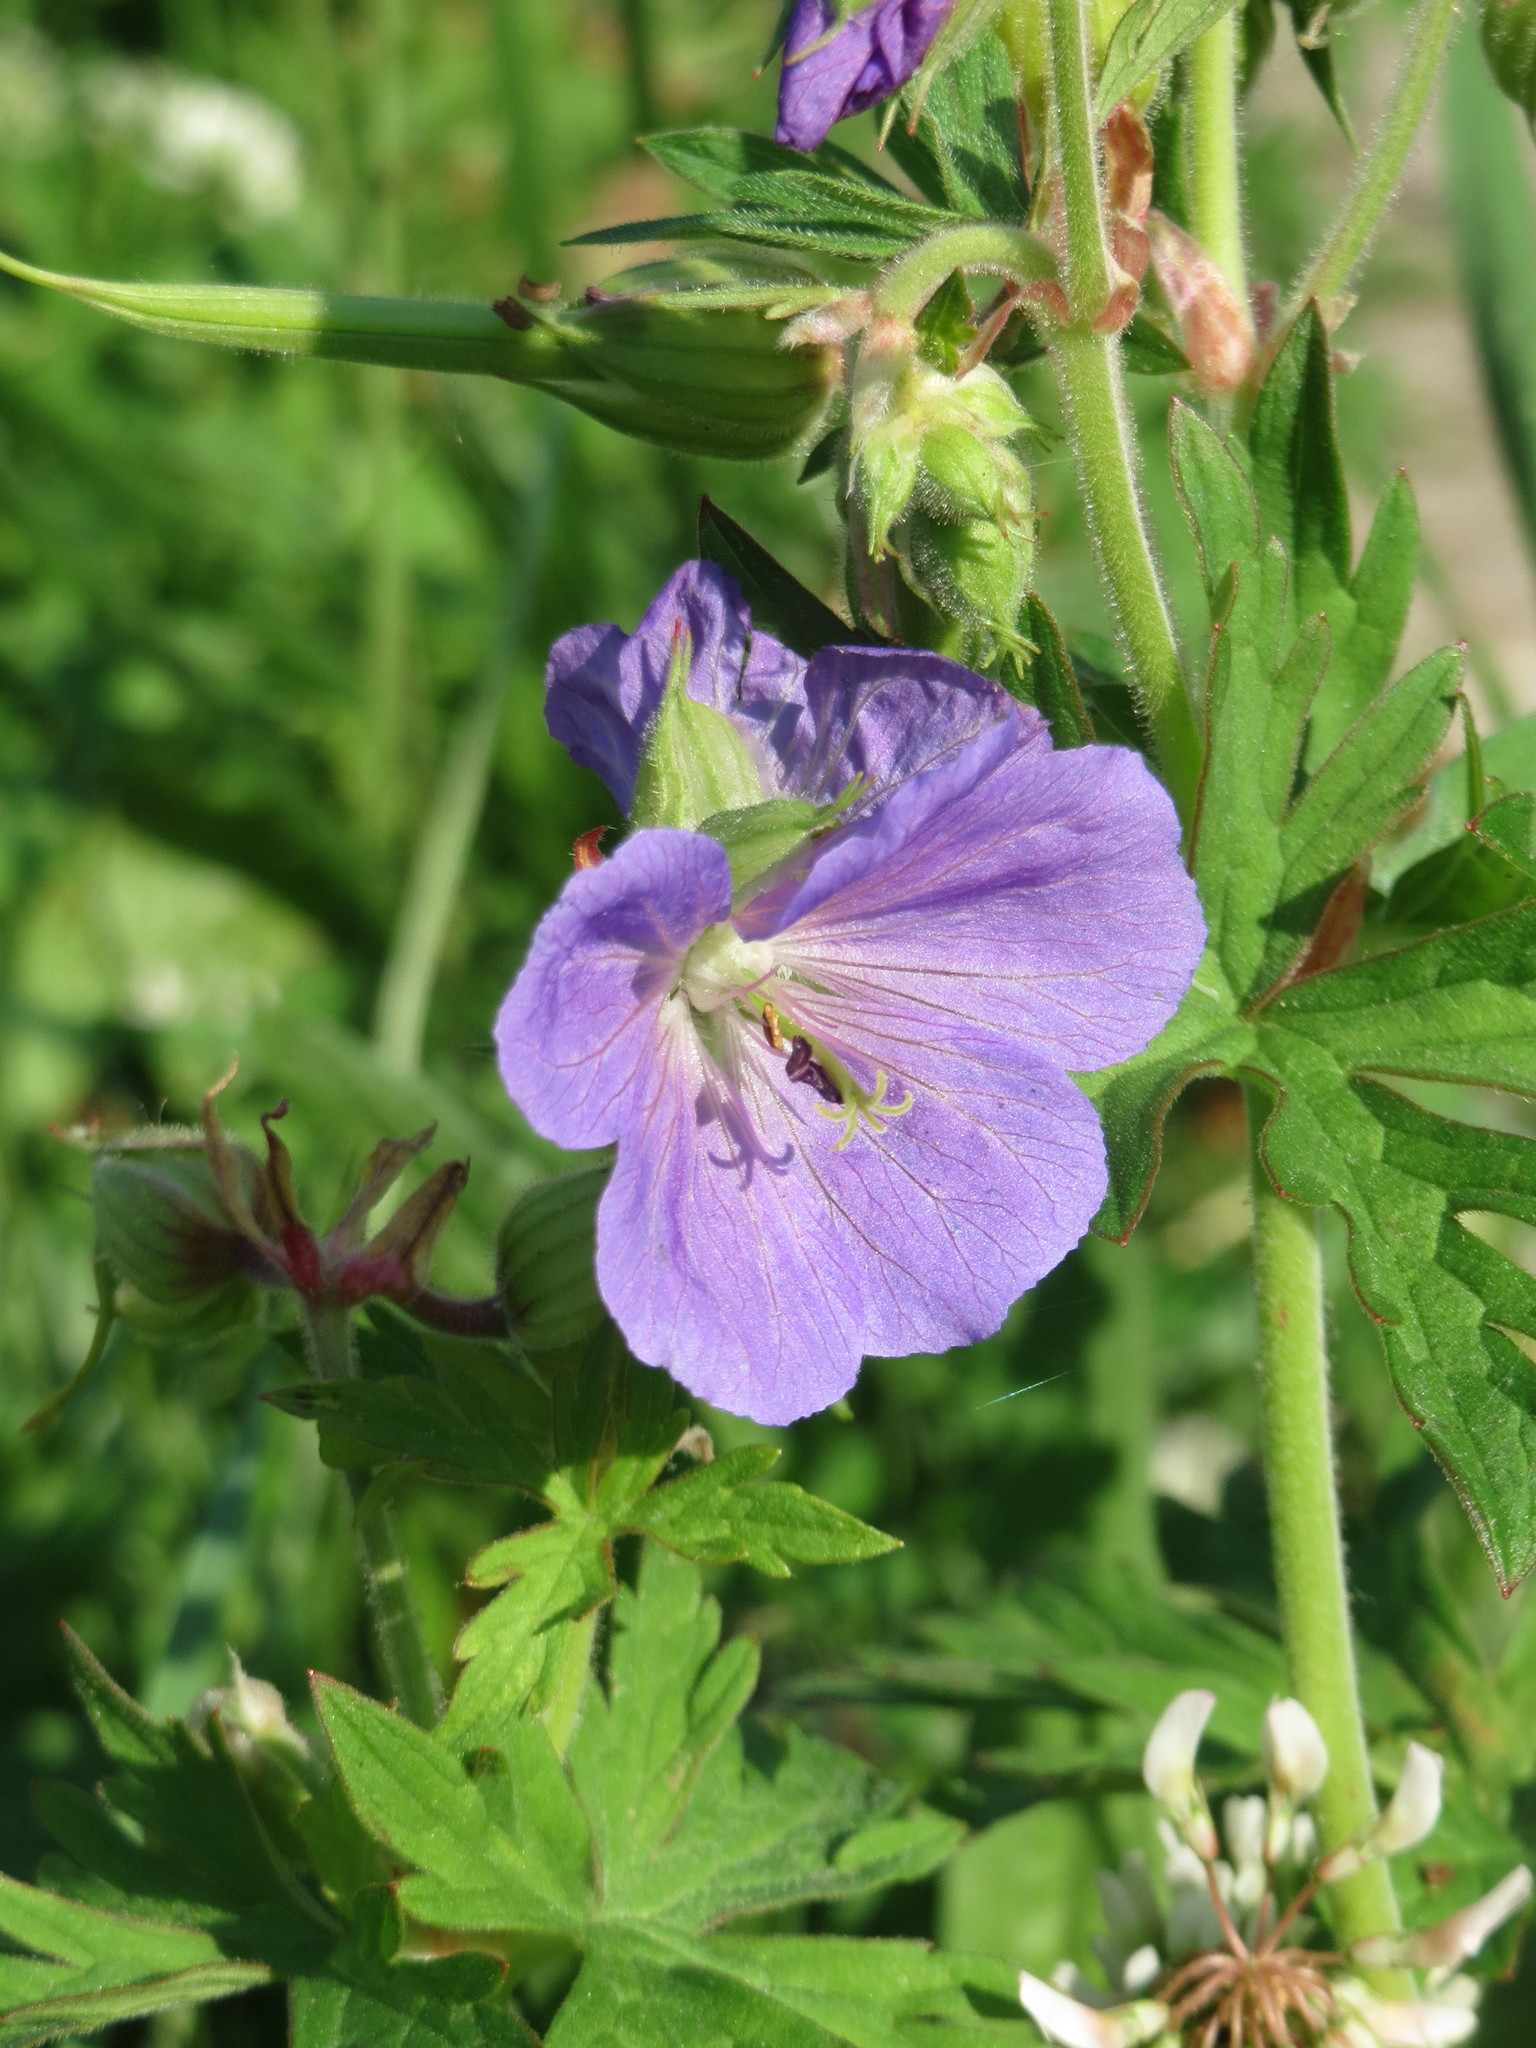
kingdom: Plantae
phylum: Tracheophyta
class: Magnoliopsida
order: Geraniales
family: Geraniaceae
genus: Geranium
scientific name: Geranium pratense
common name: Meadow crane's-bill
